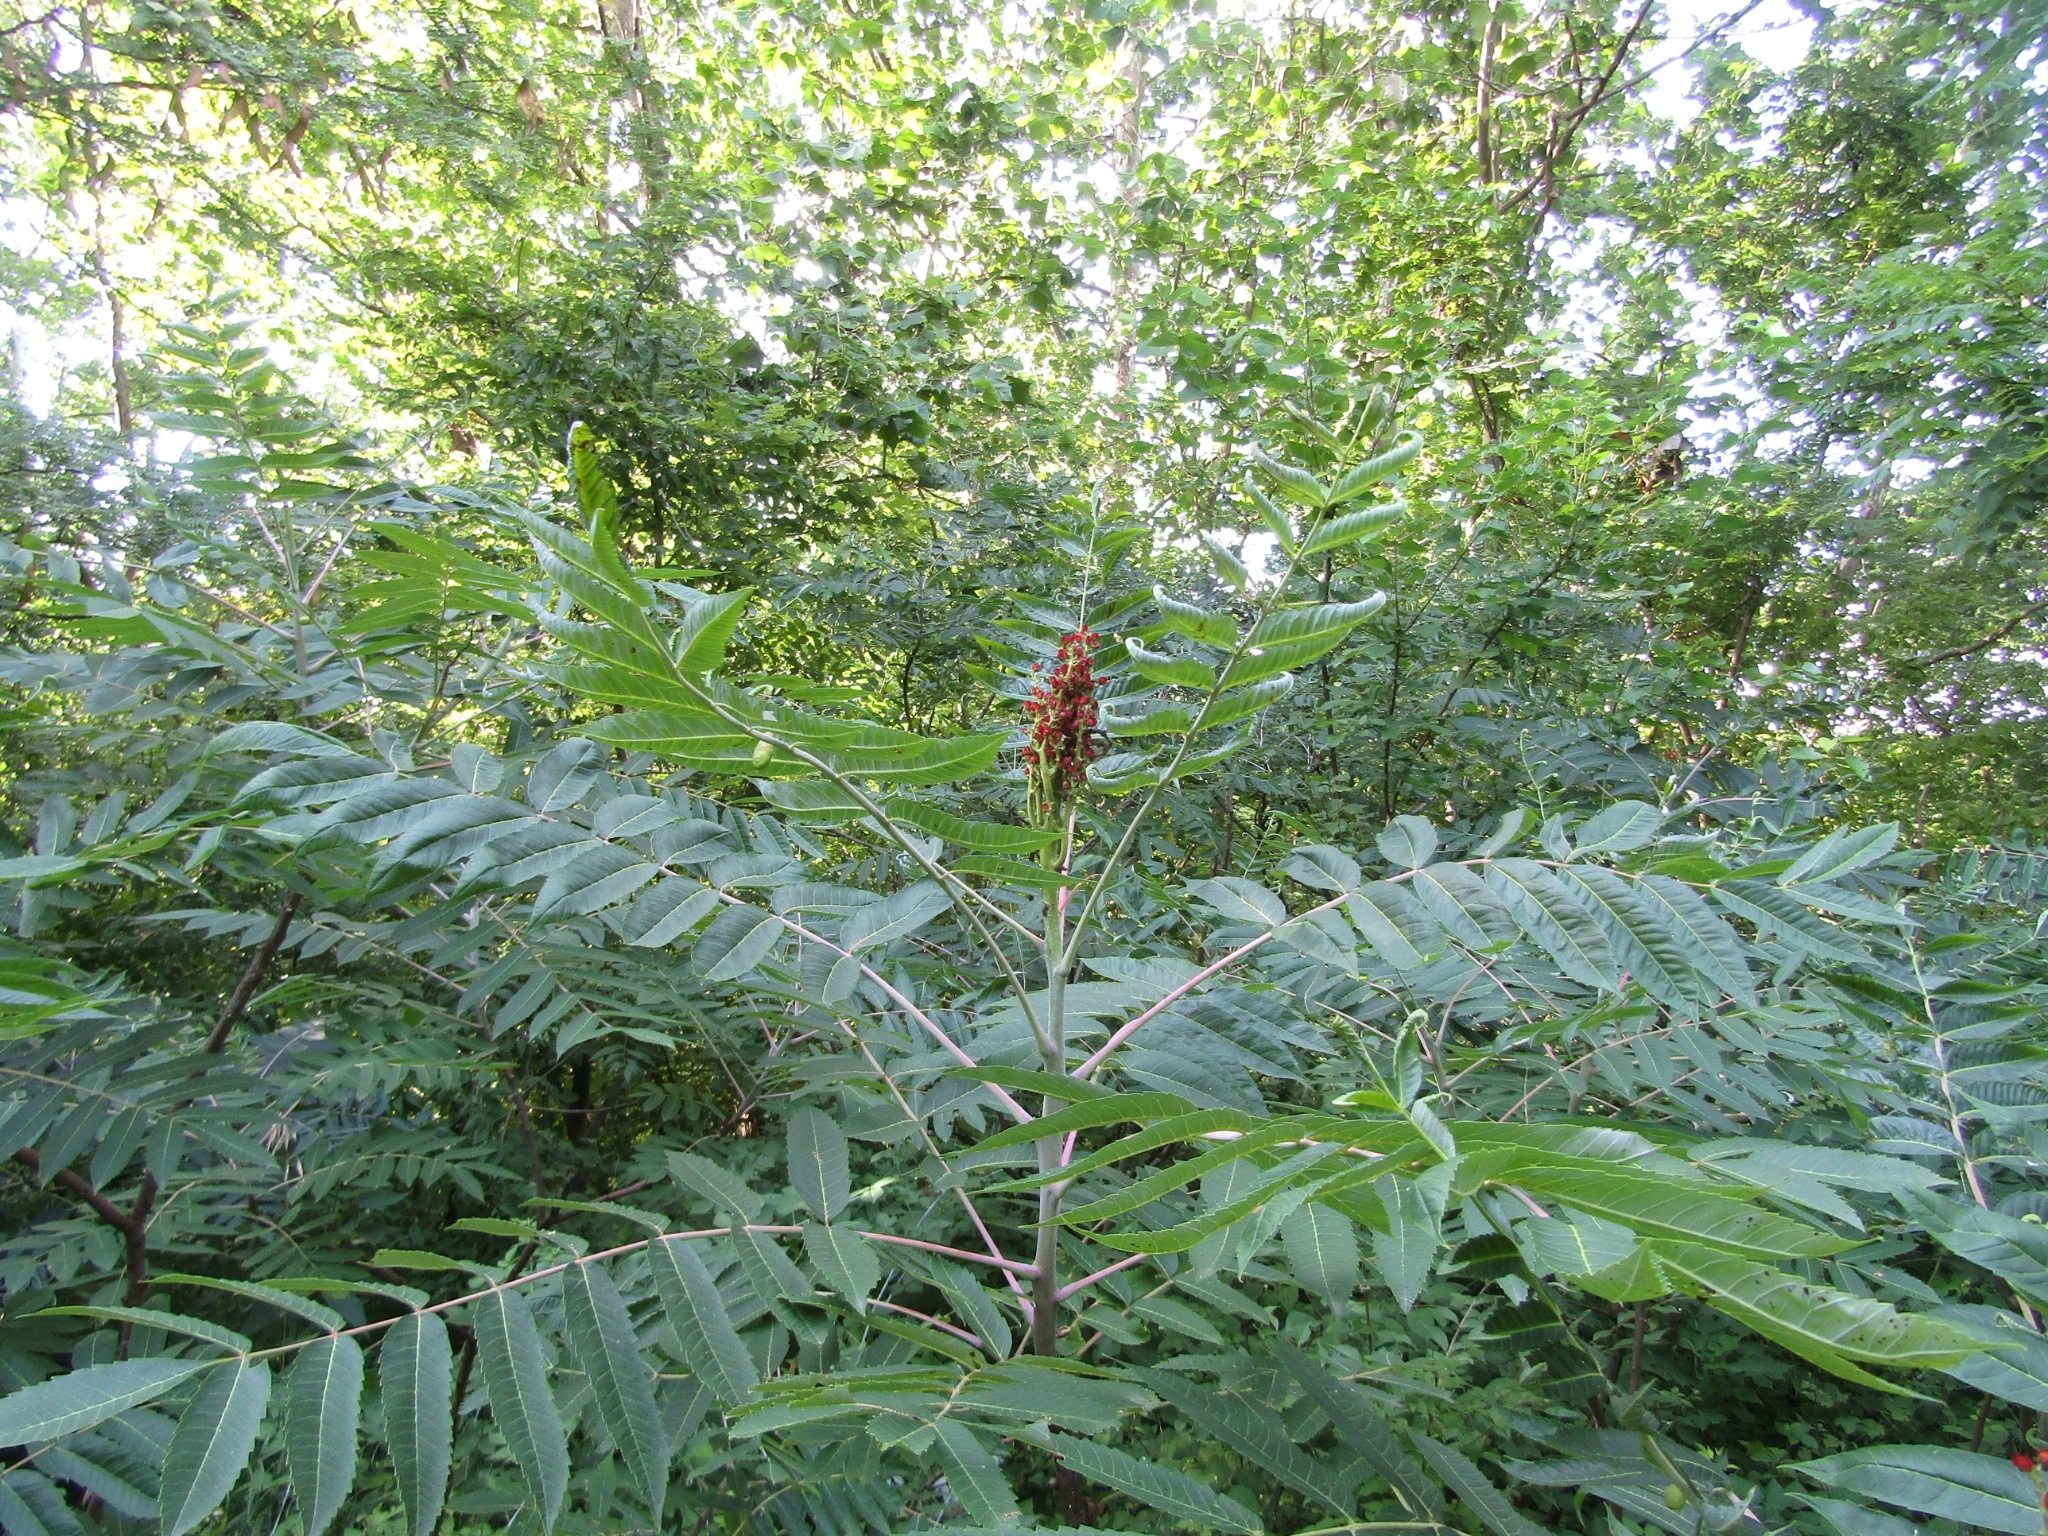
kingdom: Plantae
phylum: Tracheophyta
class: Magnoliopsida
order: Sapindales
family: Anacardiaceae
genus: Rhus
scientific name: Rhus glabra
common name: Scarlet sumac
